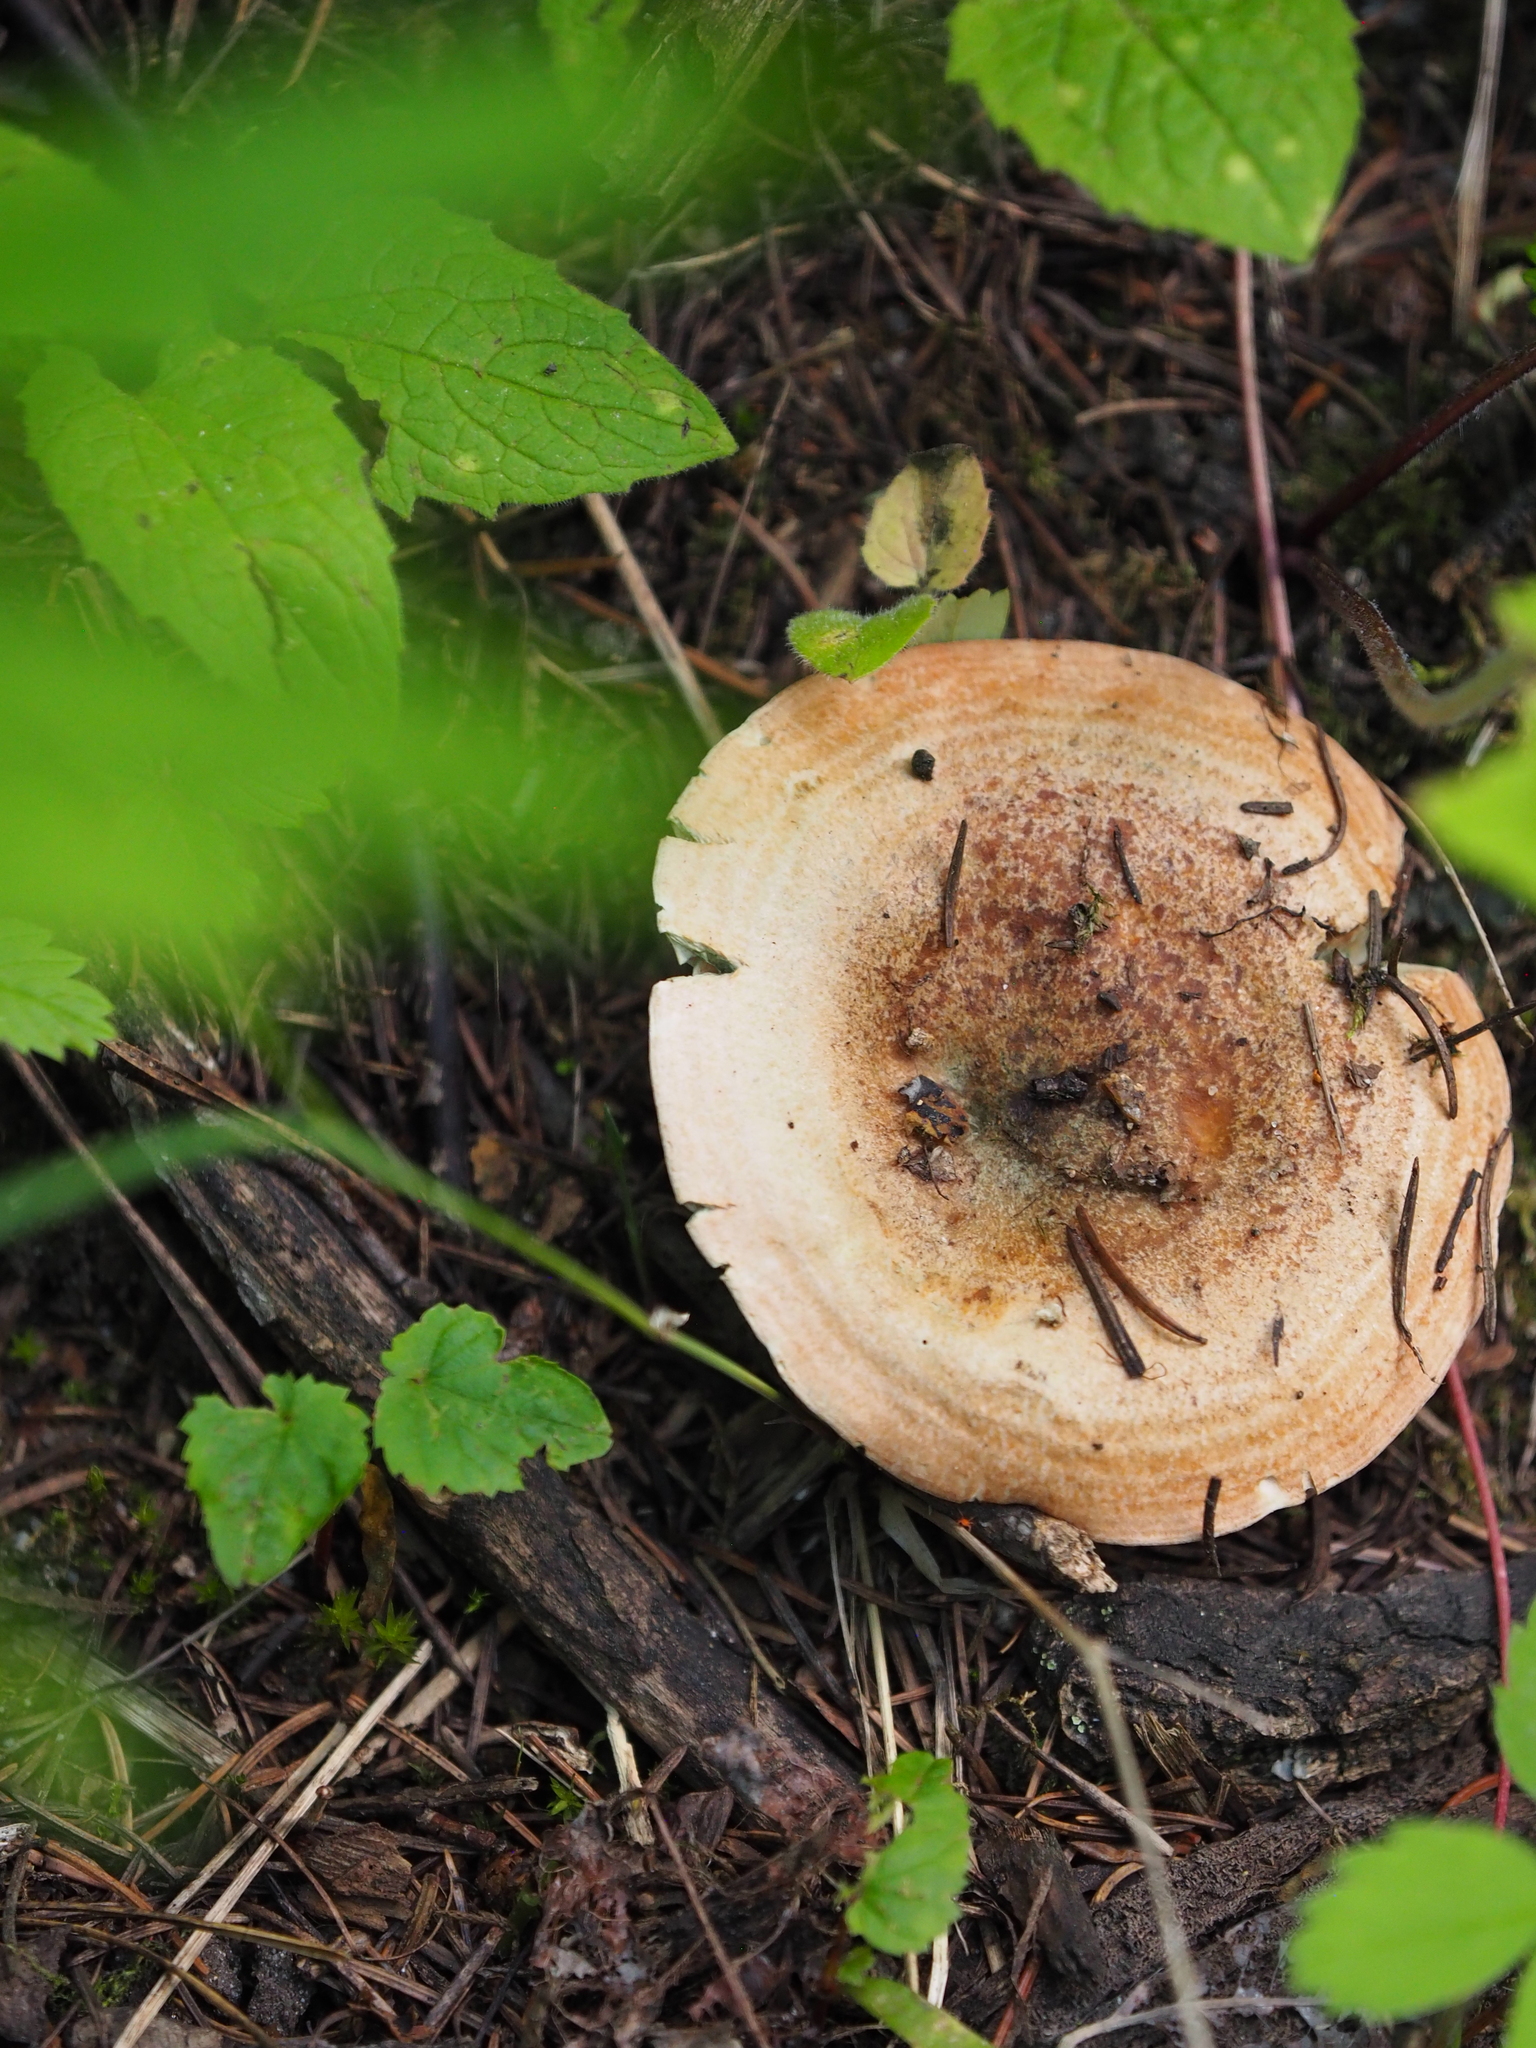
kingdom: Fungi
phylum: Basidiomycota
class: Agaricomycetes
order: Russulales
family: Russulaceae
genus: Lactarius
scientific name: Lactarius rubrilacteus
